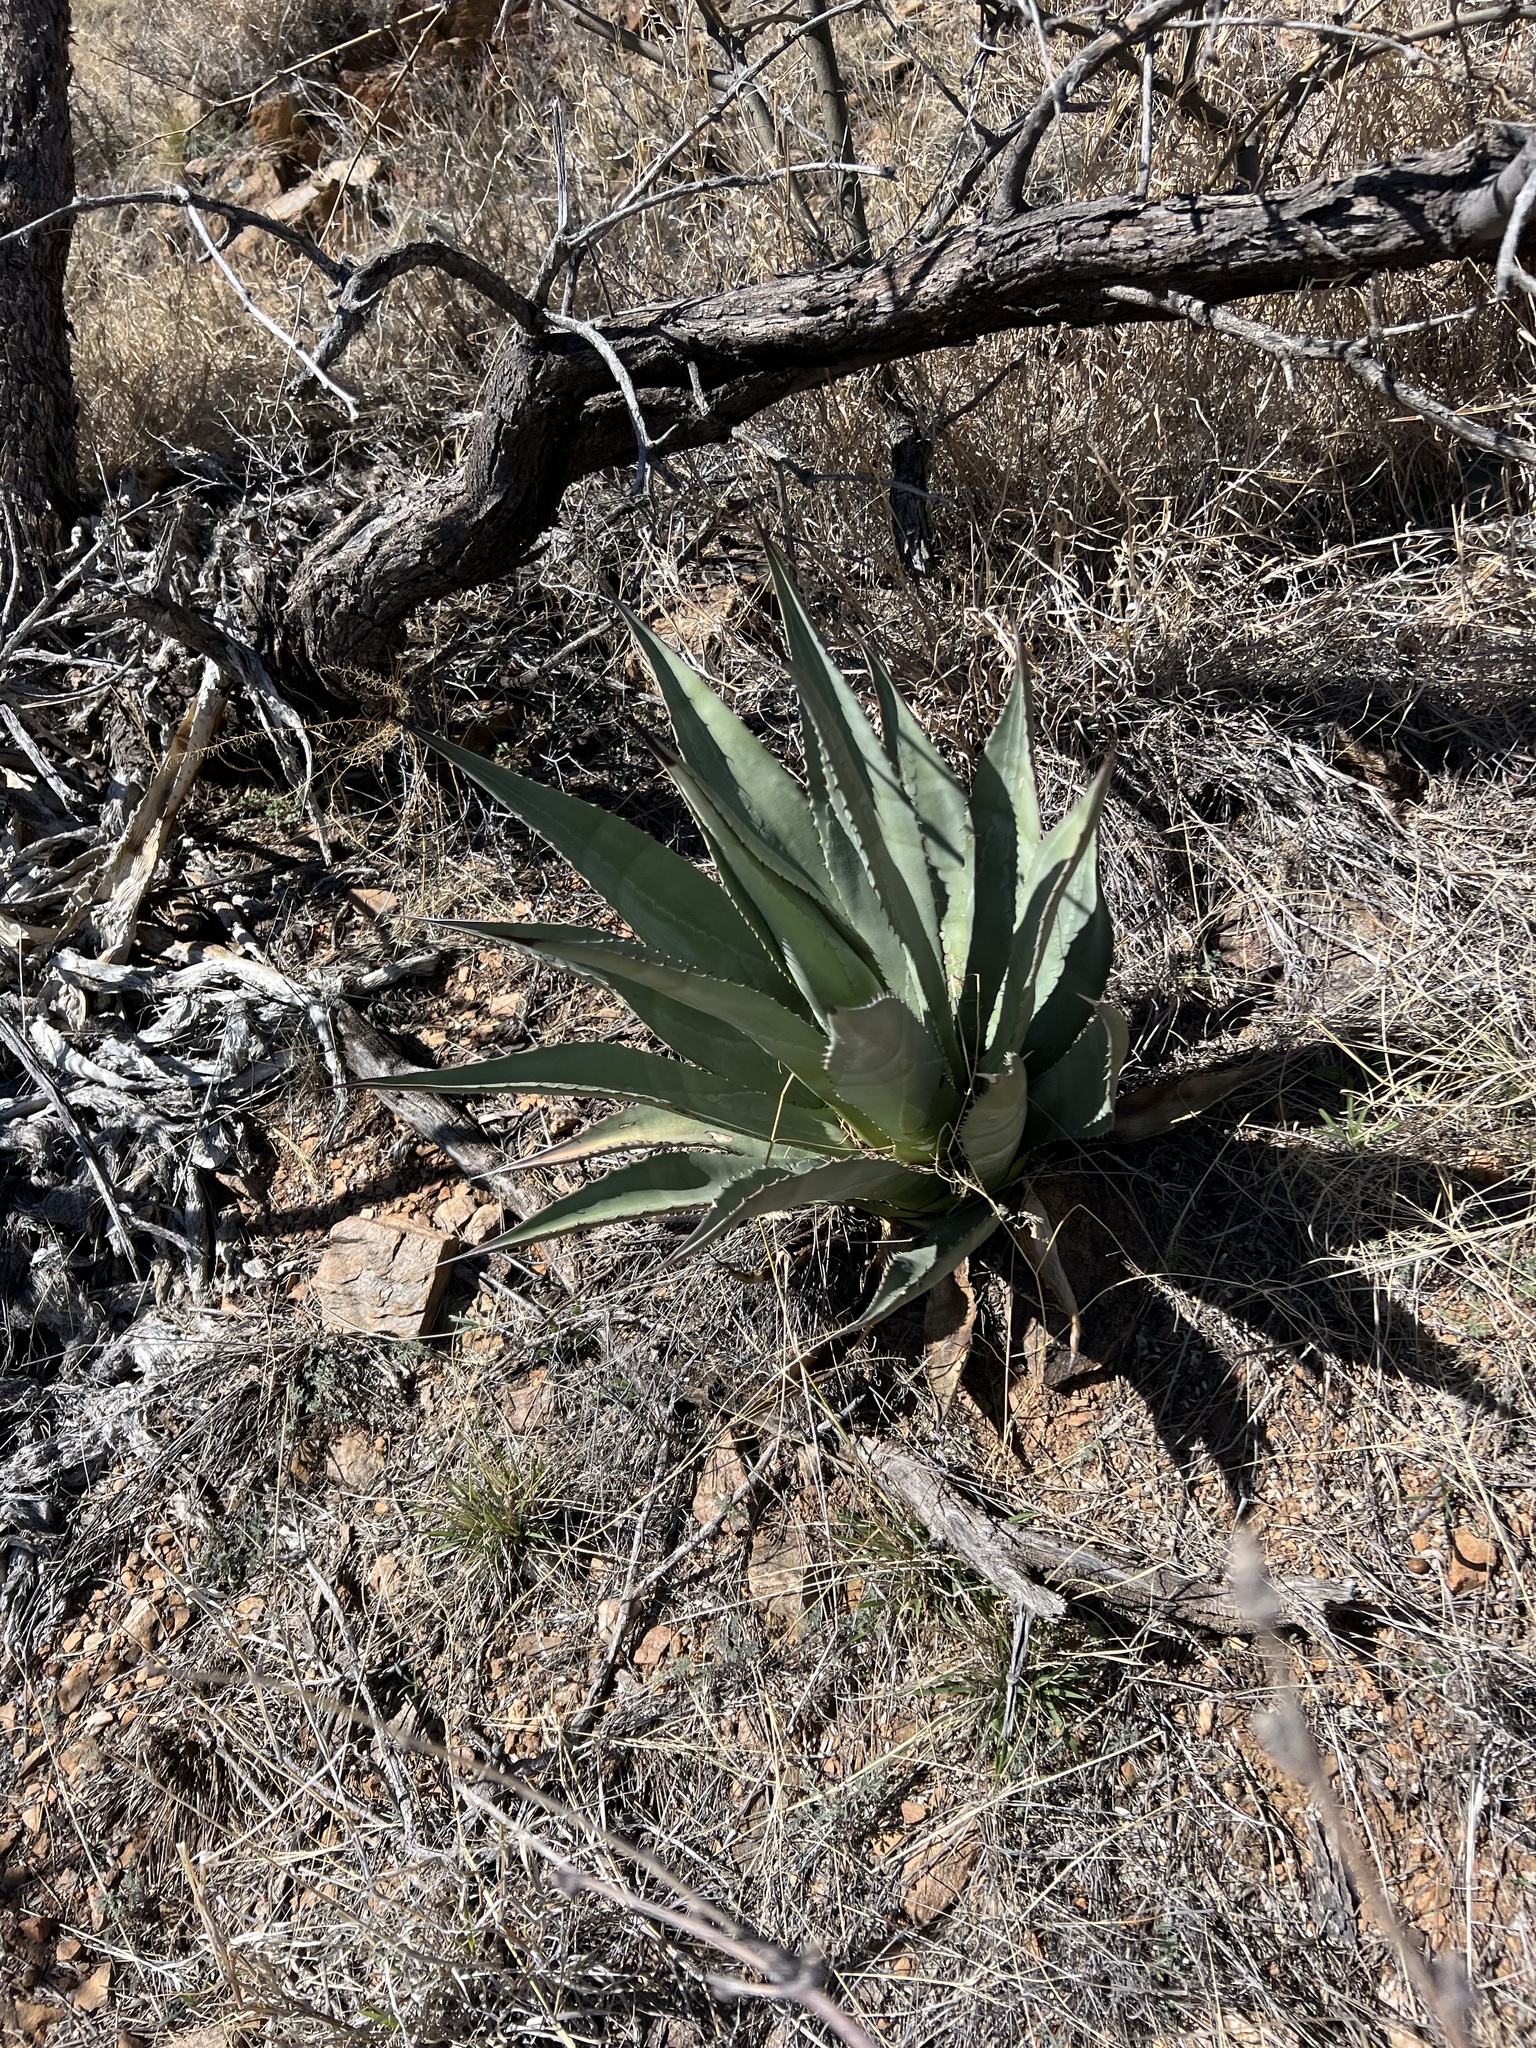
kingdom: Plantae
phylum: Tracheophyta
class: Liliopsida
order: Asparagales
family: Asparagaceae
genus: Agave
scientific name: Agave palmeri
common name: Palmer agave
